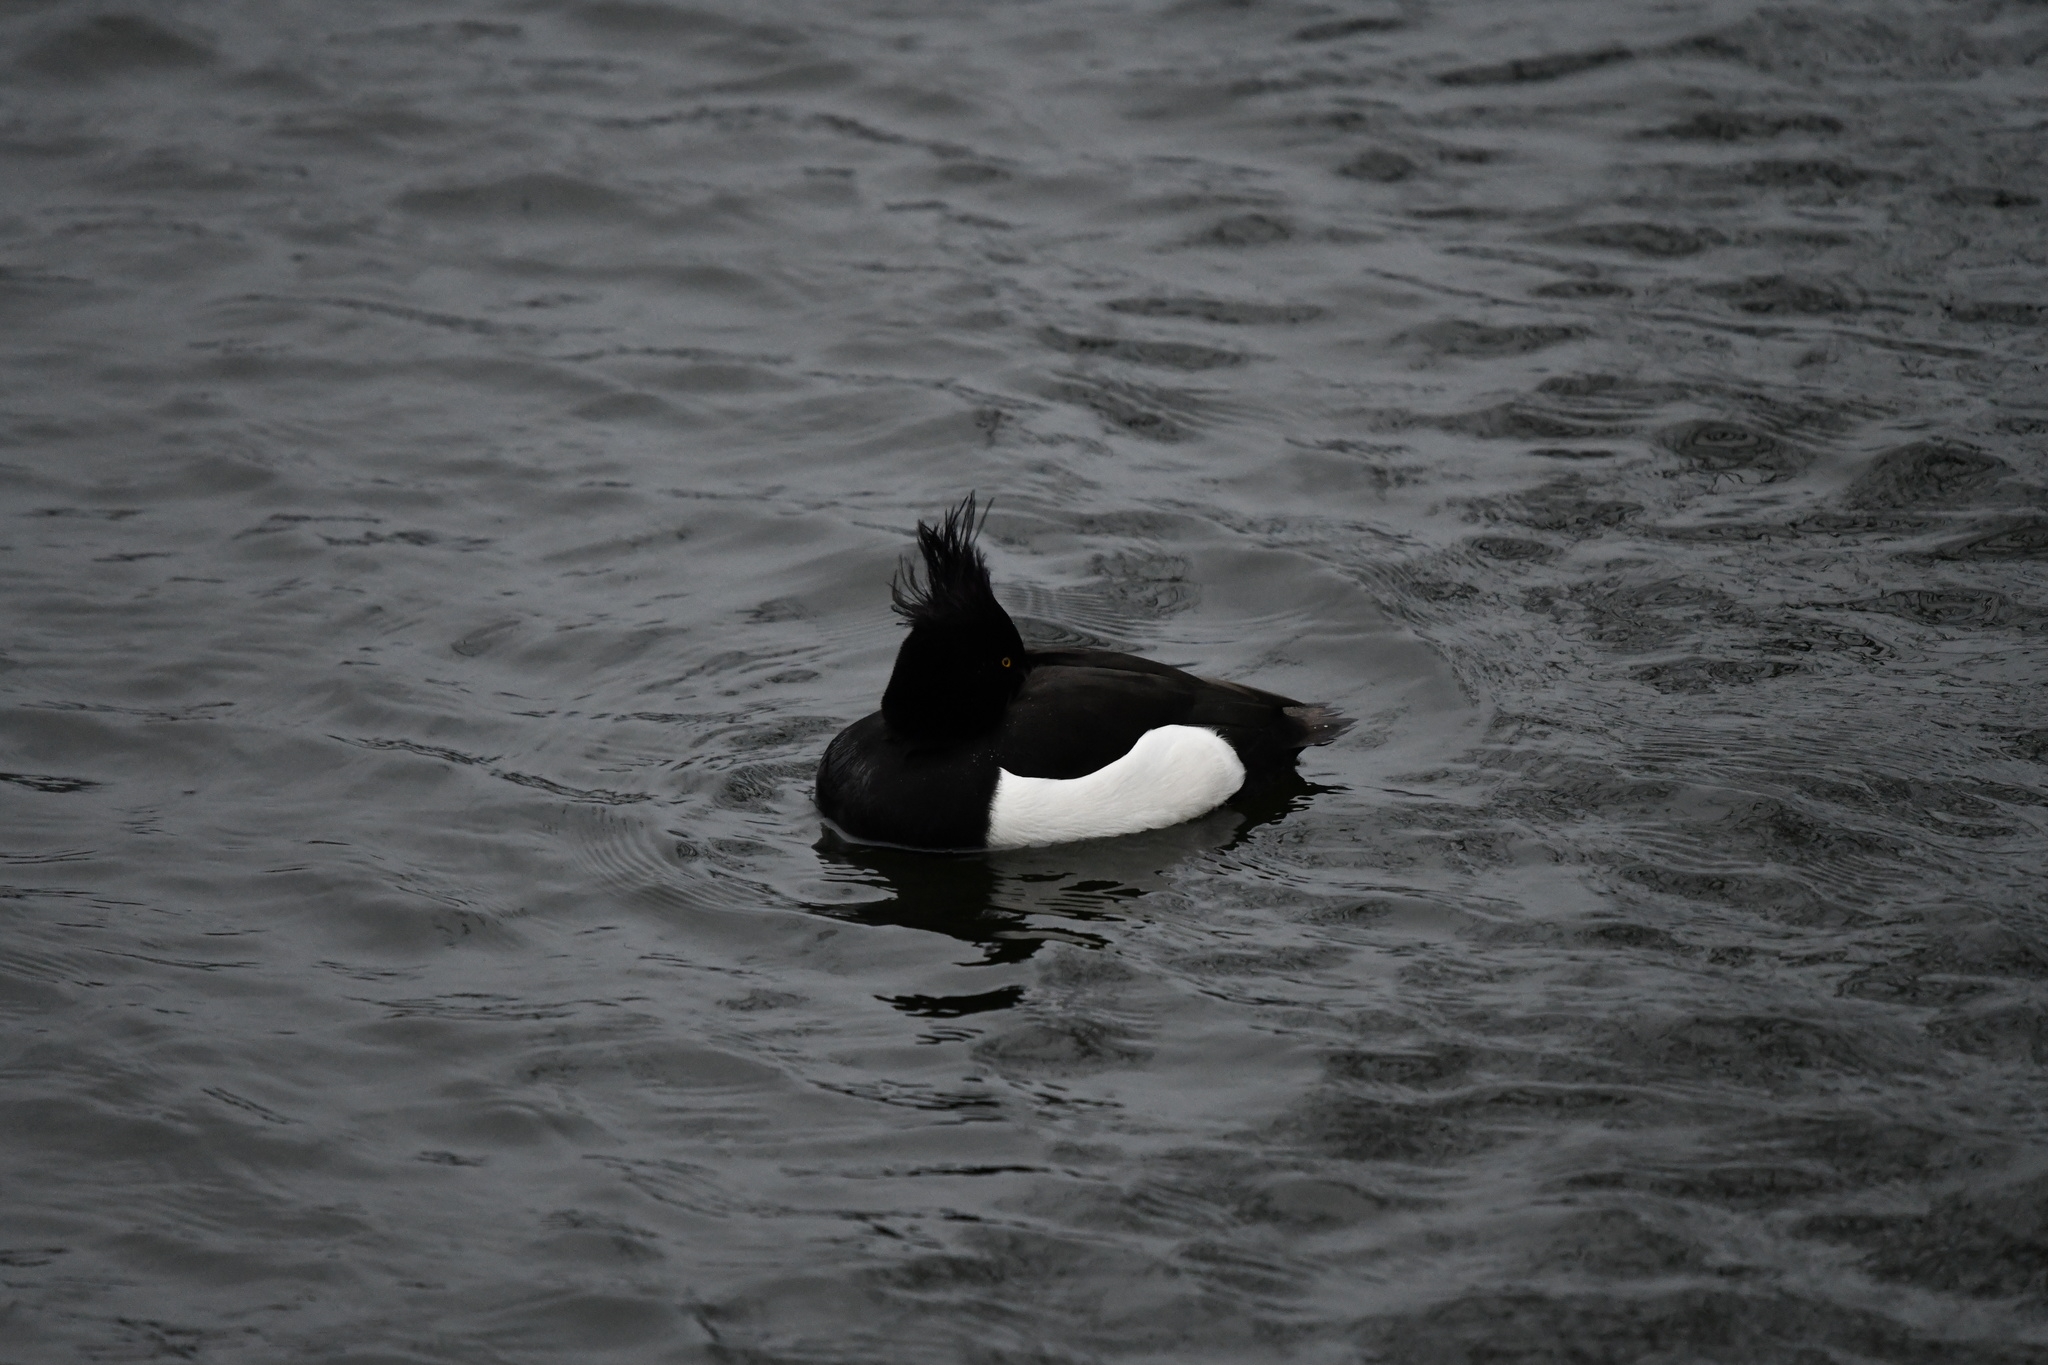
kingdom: Animalia
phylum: Chordata
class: Aves
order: Anseriformes
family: Anatidae
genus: Aythya
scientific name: Aythya fuligula
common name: Tufted duck
